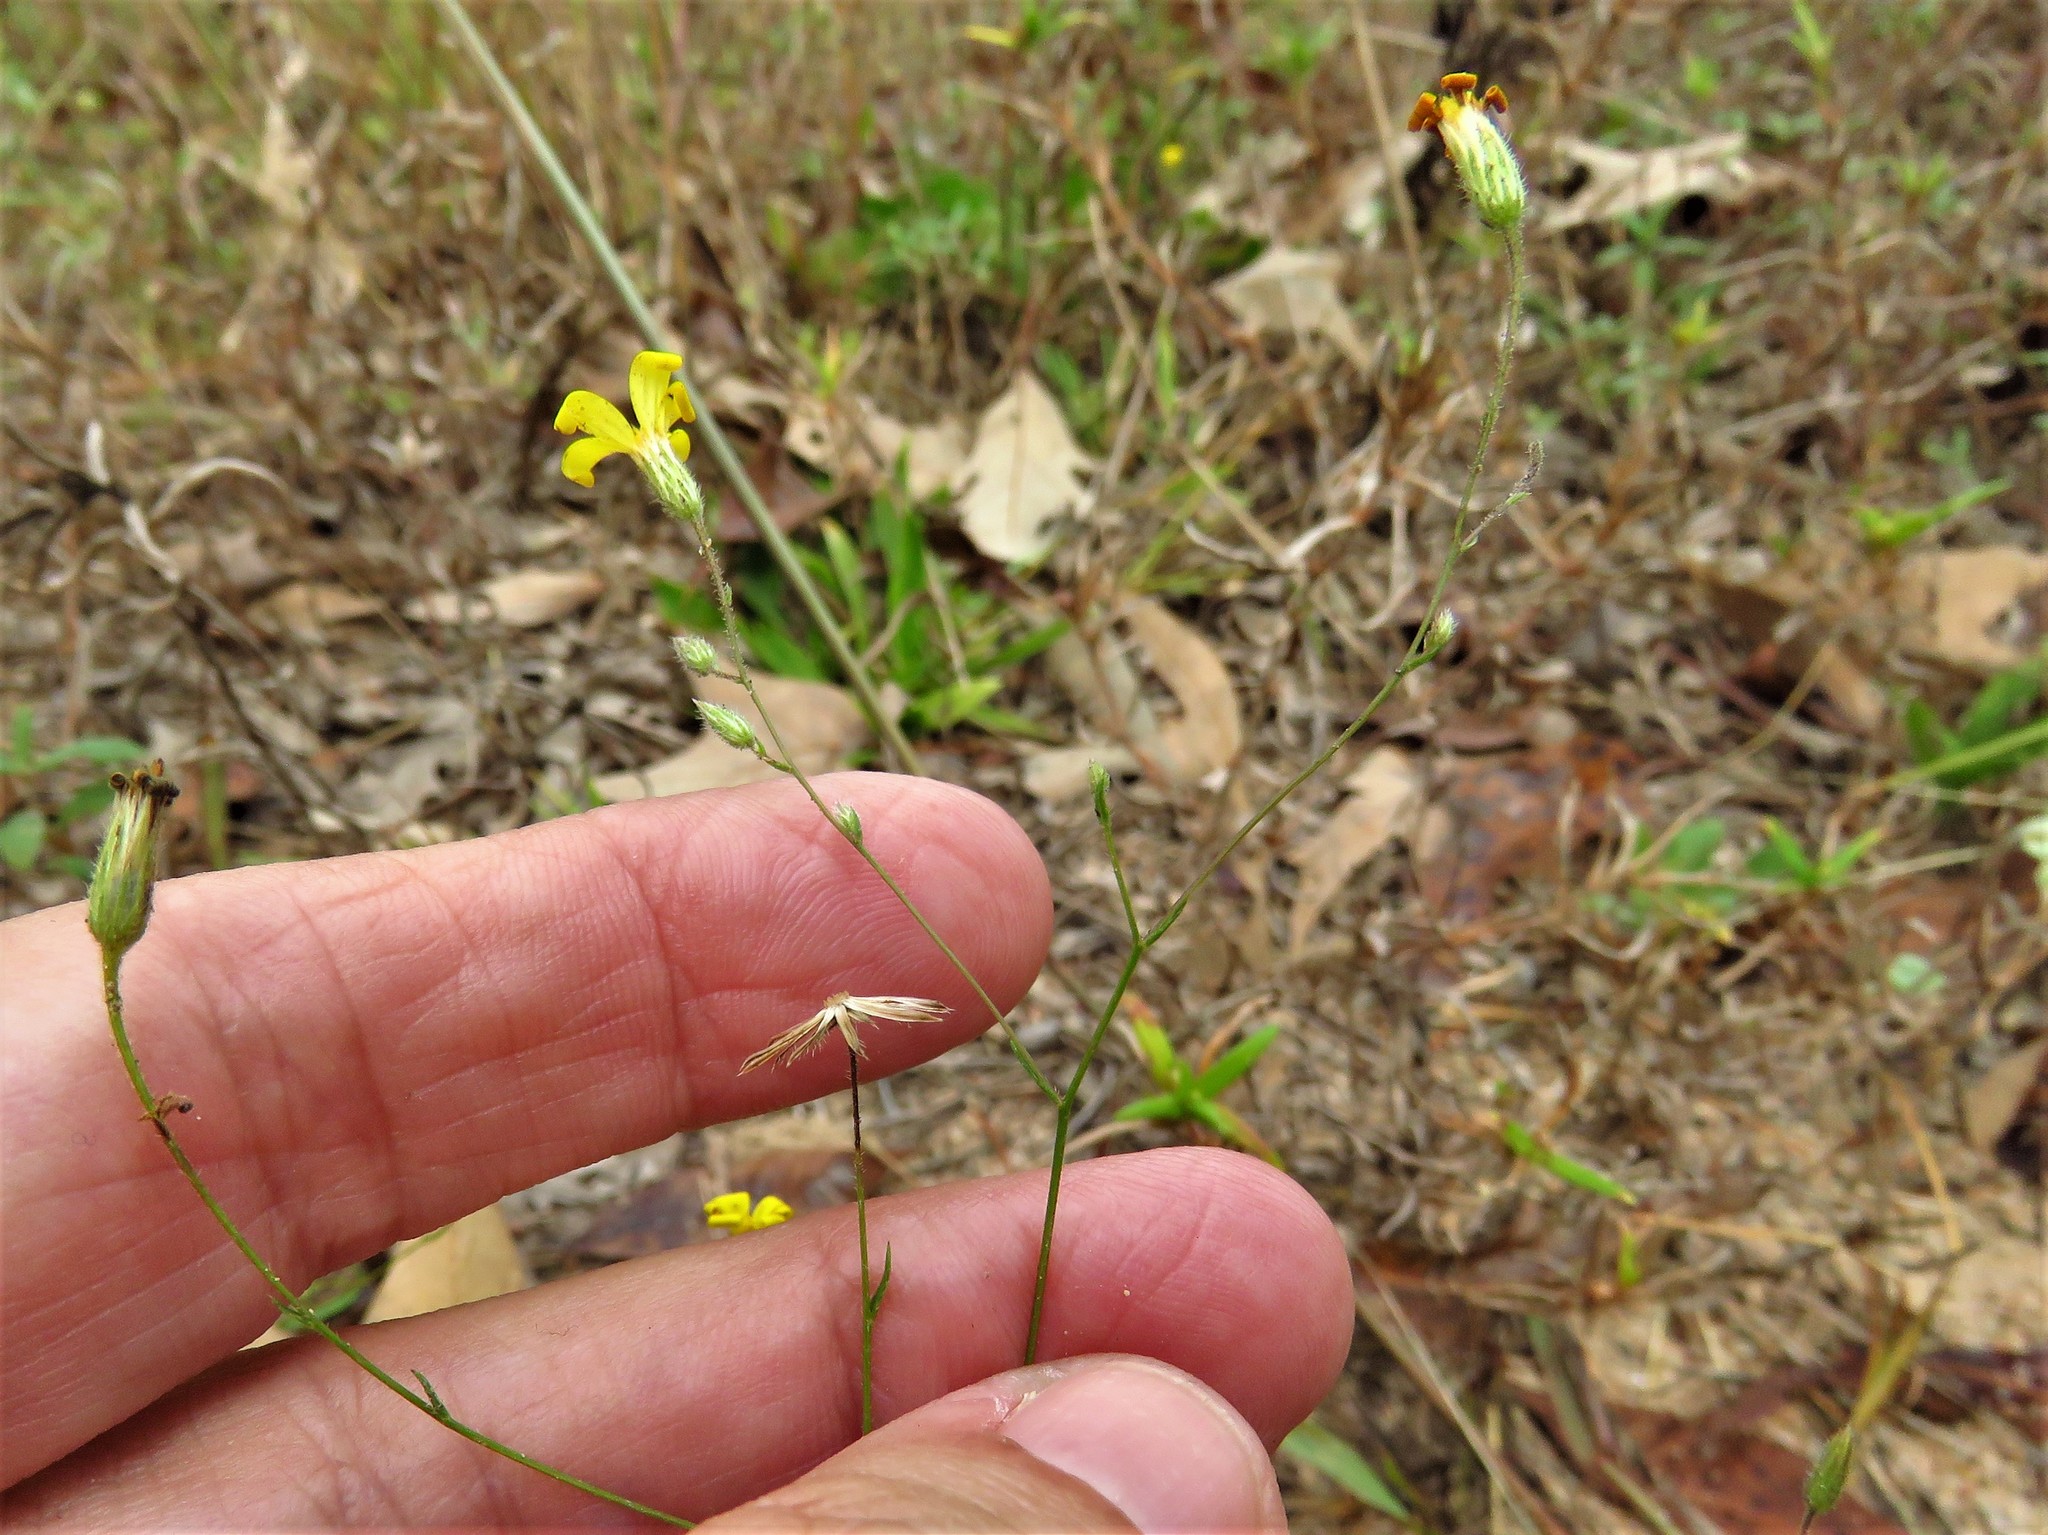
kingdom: Plantae
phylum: Tracheophyta
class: Magnoliopsida
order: Asterales
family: Asteraceae
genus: Croptilon
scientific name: Croptilon divaricatum
